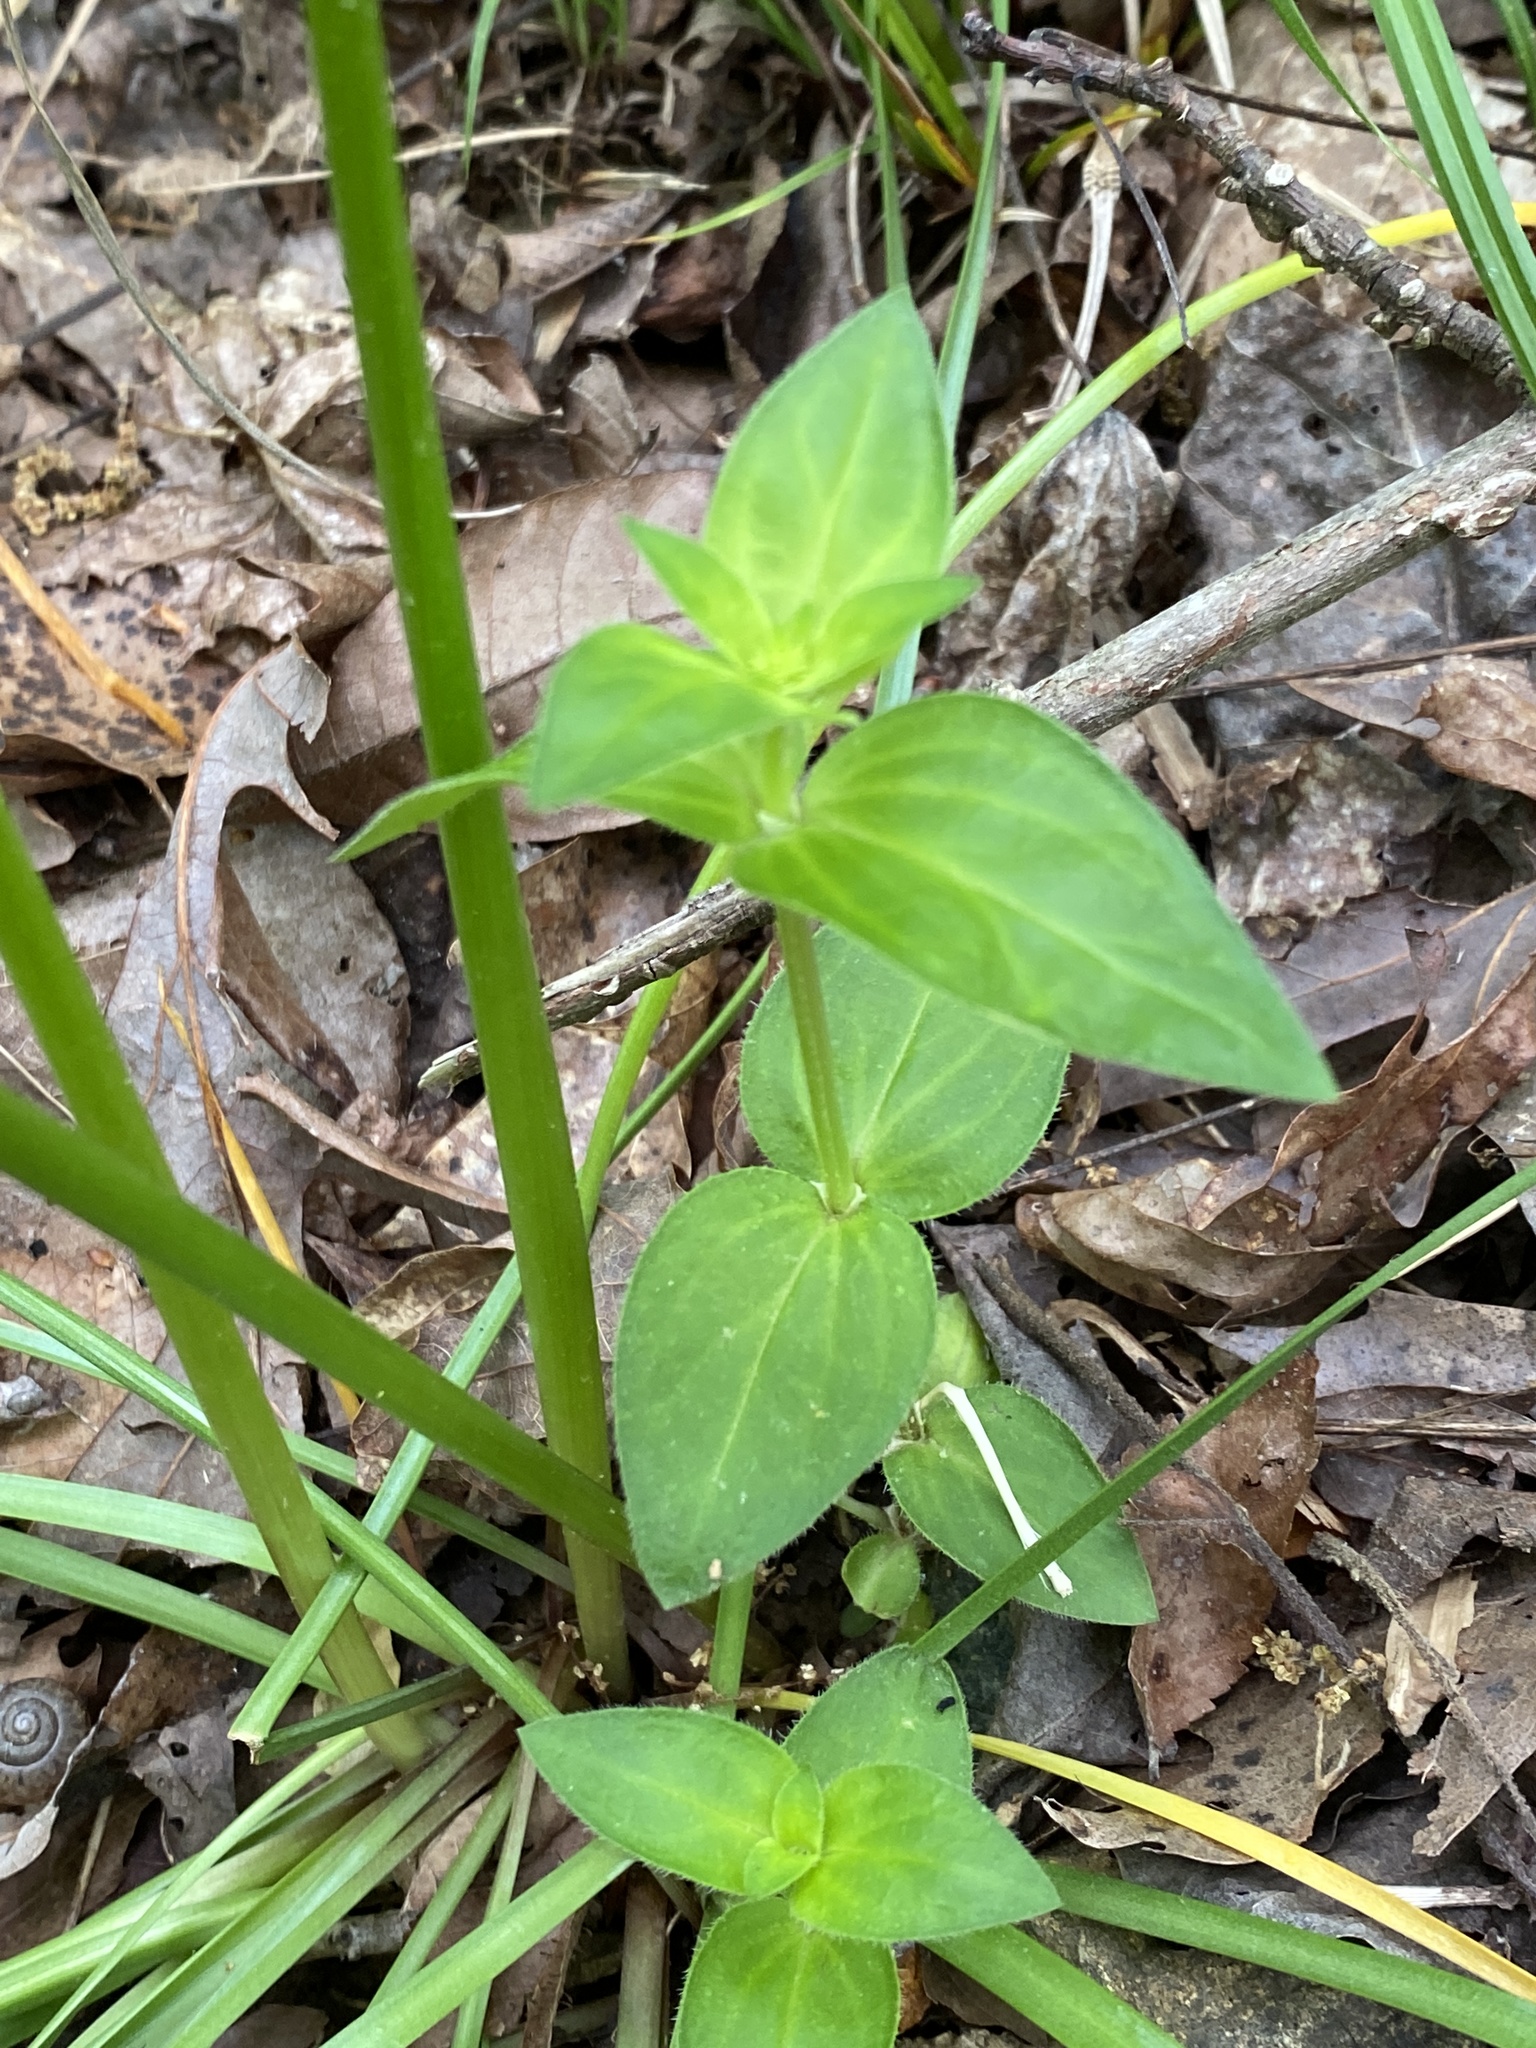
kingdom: Plantae
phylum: Tracheophyta
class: Magnoliopsida
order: Gentianales
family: Rubiaceae
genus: Houstonia
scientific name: Houstonia purpurea
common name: Summer bluet
